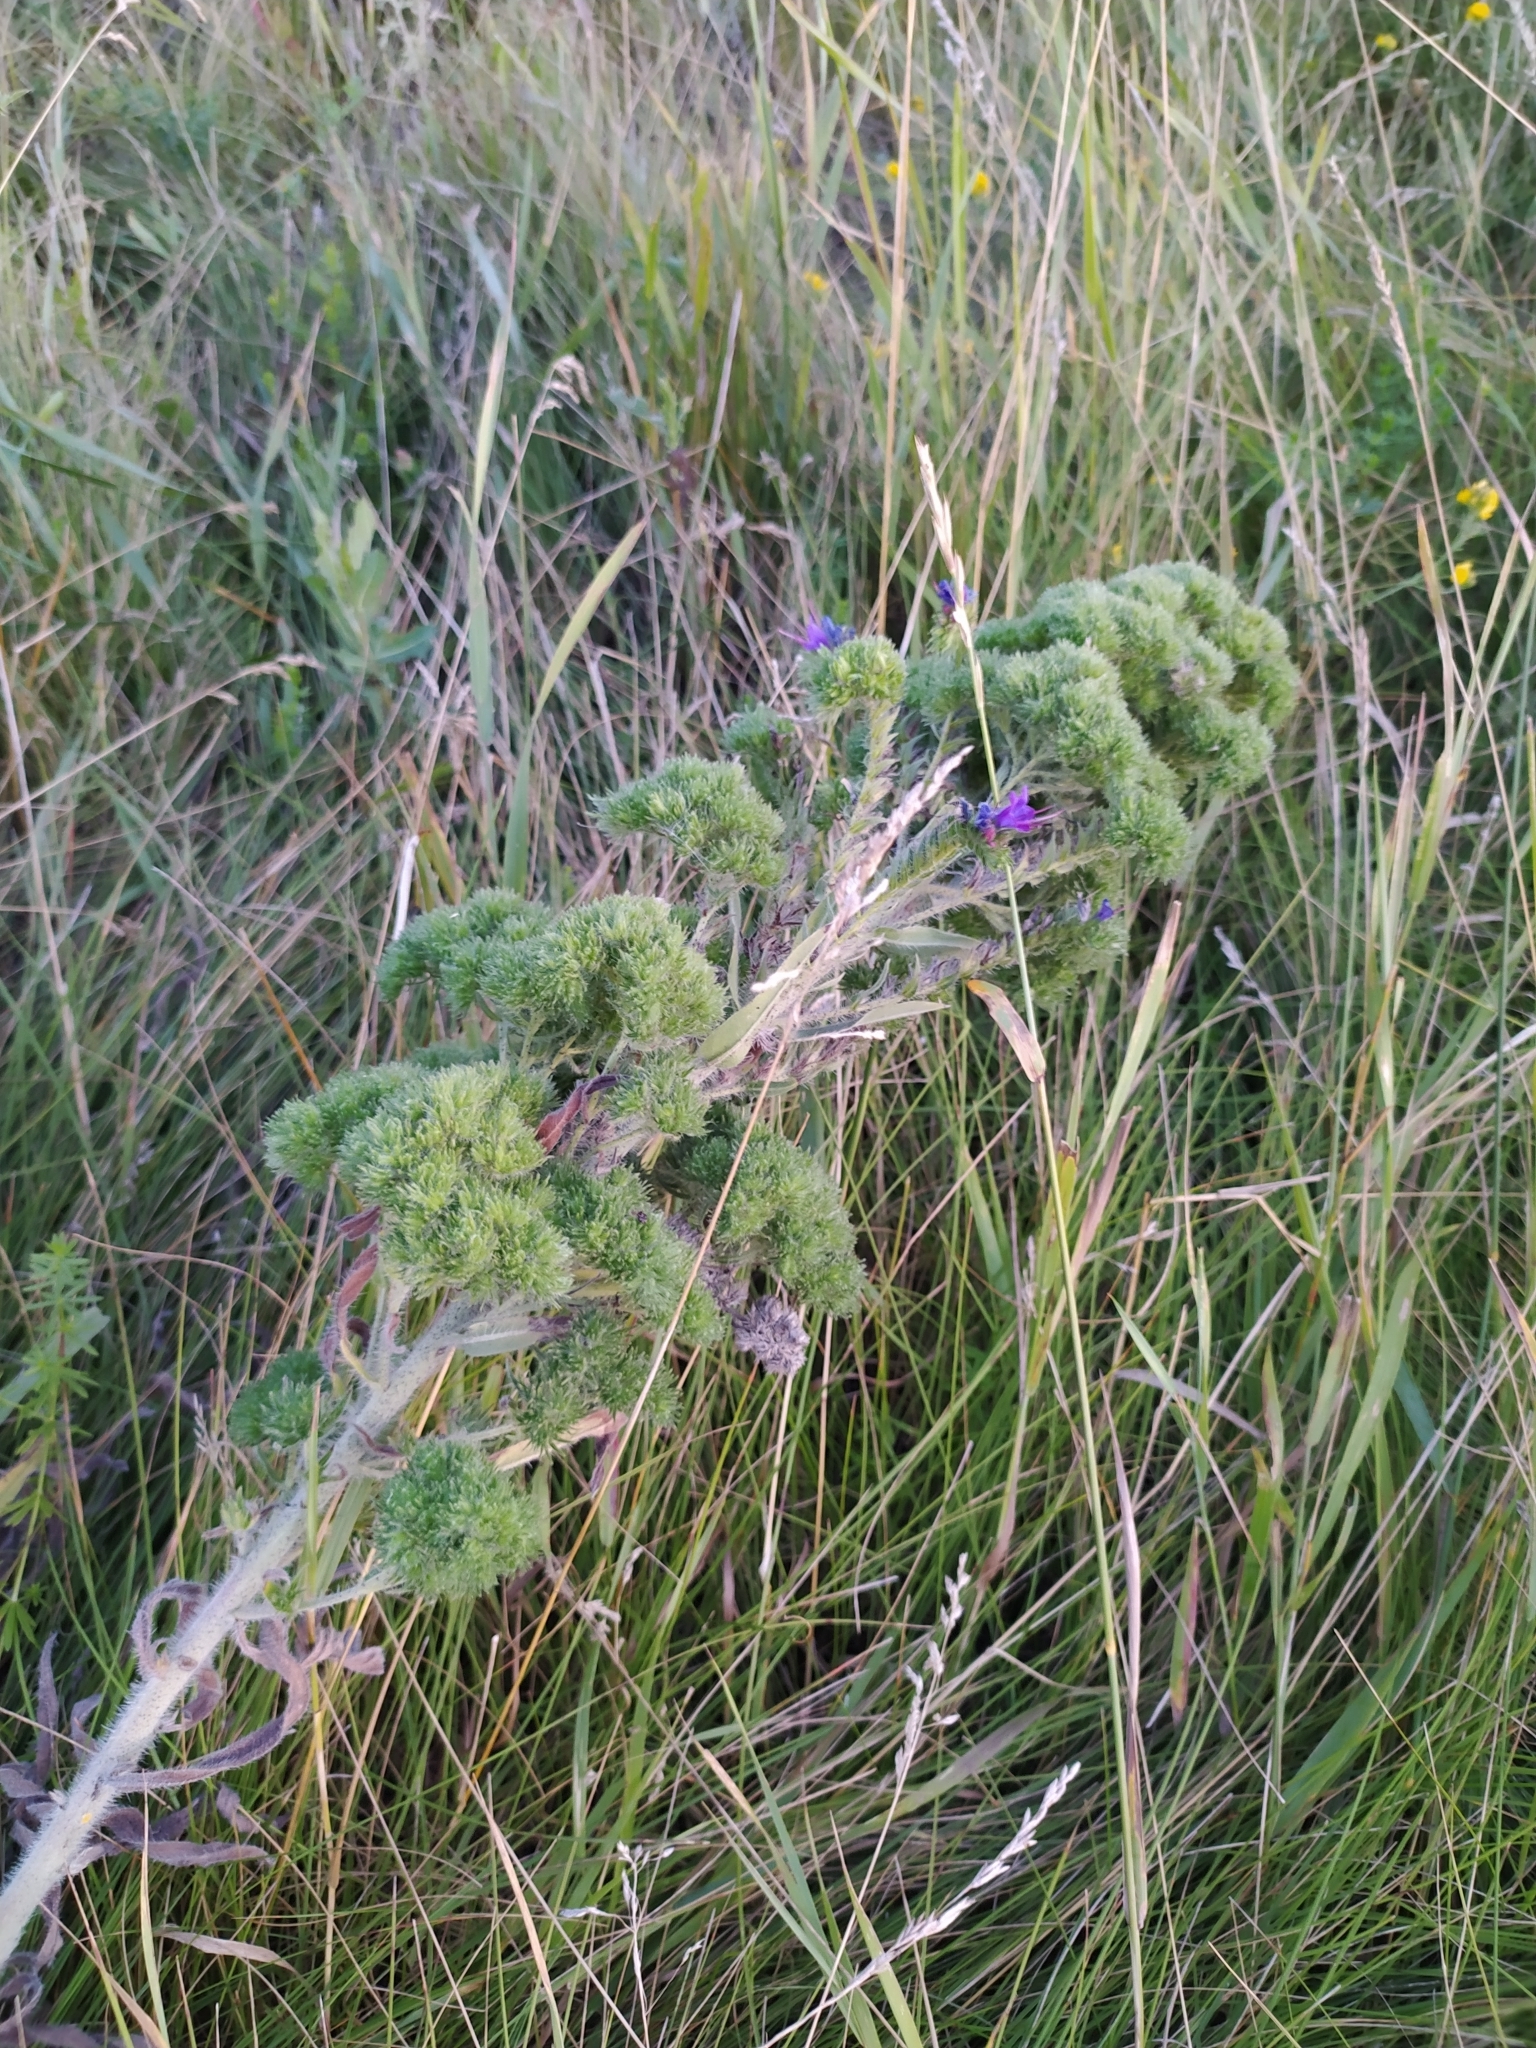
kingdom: Plantae
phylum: Tracheophyta
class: Magnoliopsida
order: Boraginales
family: Boraginaceae
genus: Echium
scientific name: Echium vulgare
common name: Common viper's bugloss
